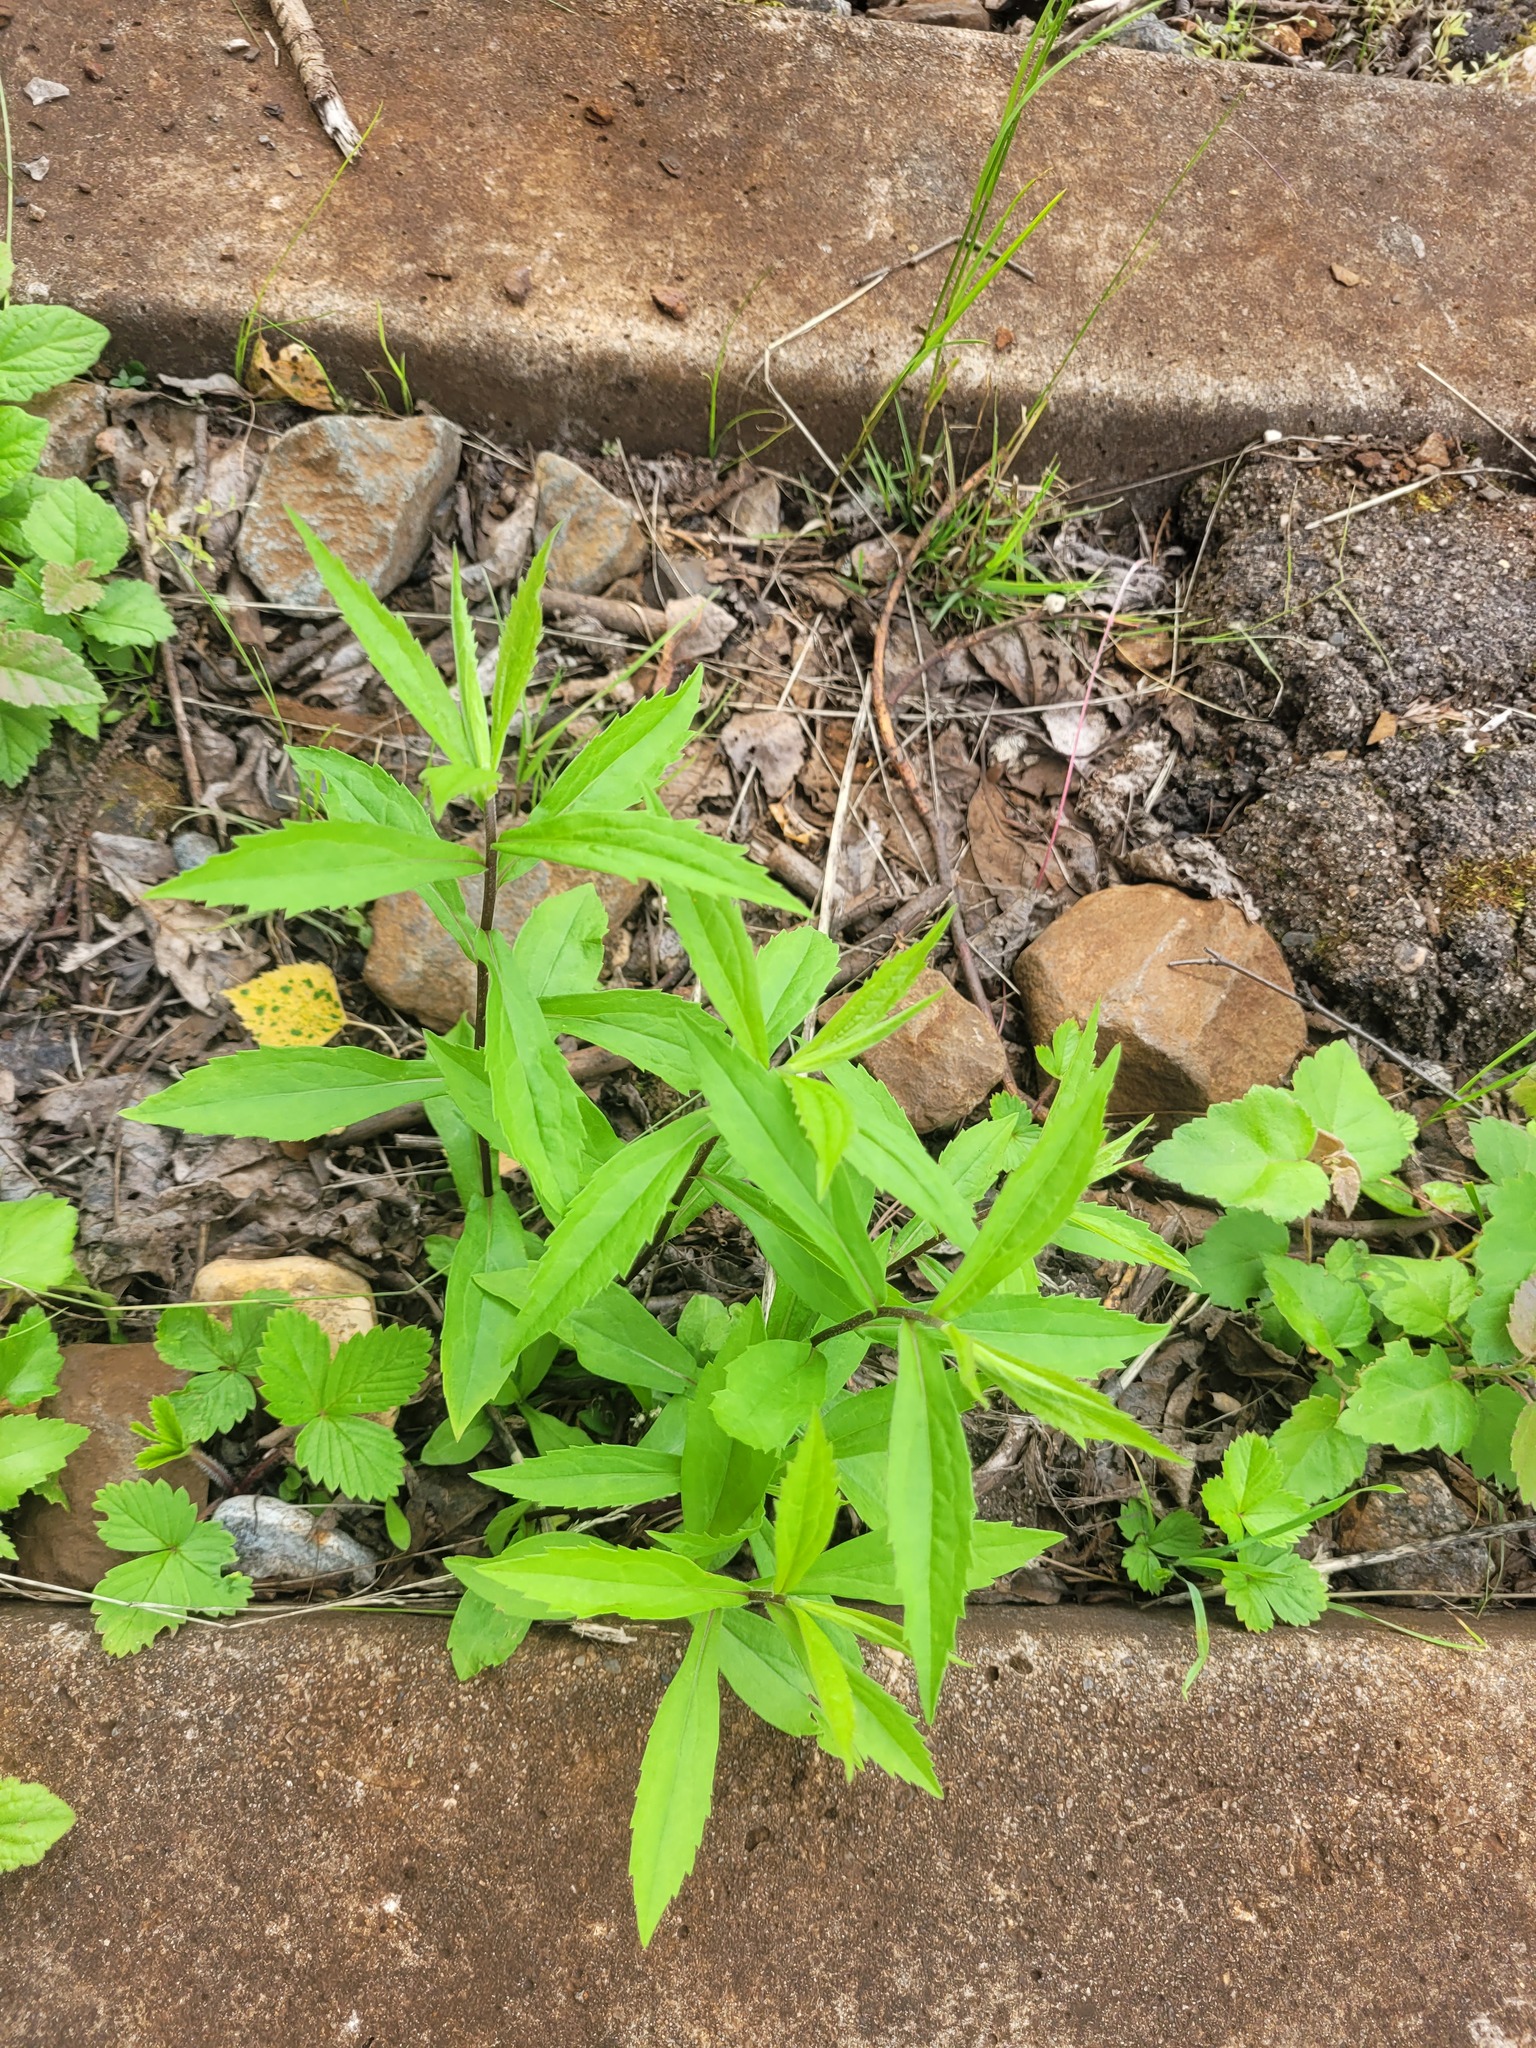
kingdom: Plantae
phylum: Tracheophyta
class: Magnoliopsida
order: Asterales
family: Asteraceae
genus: Solidago
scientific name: Solidago canadensis
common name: Canada goldenrod
